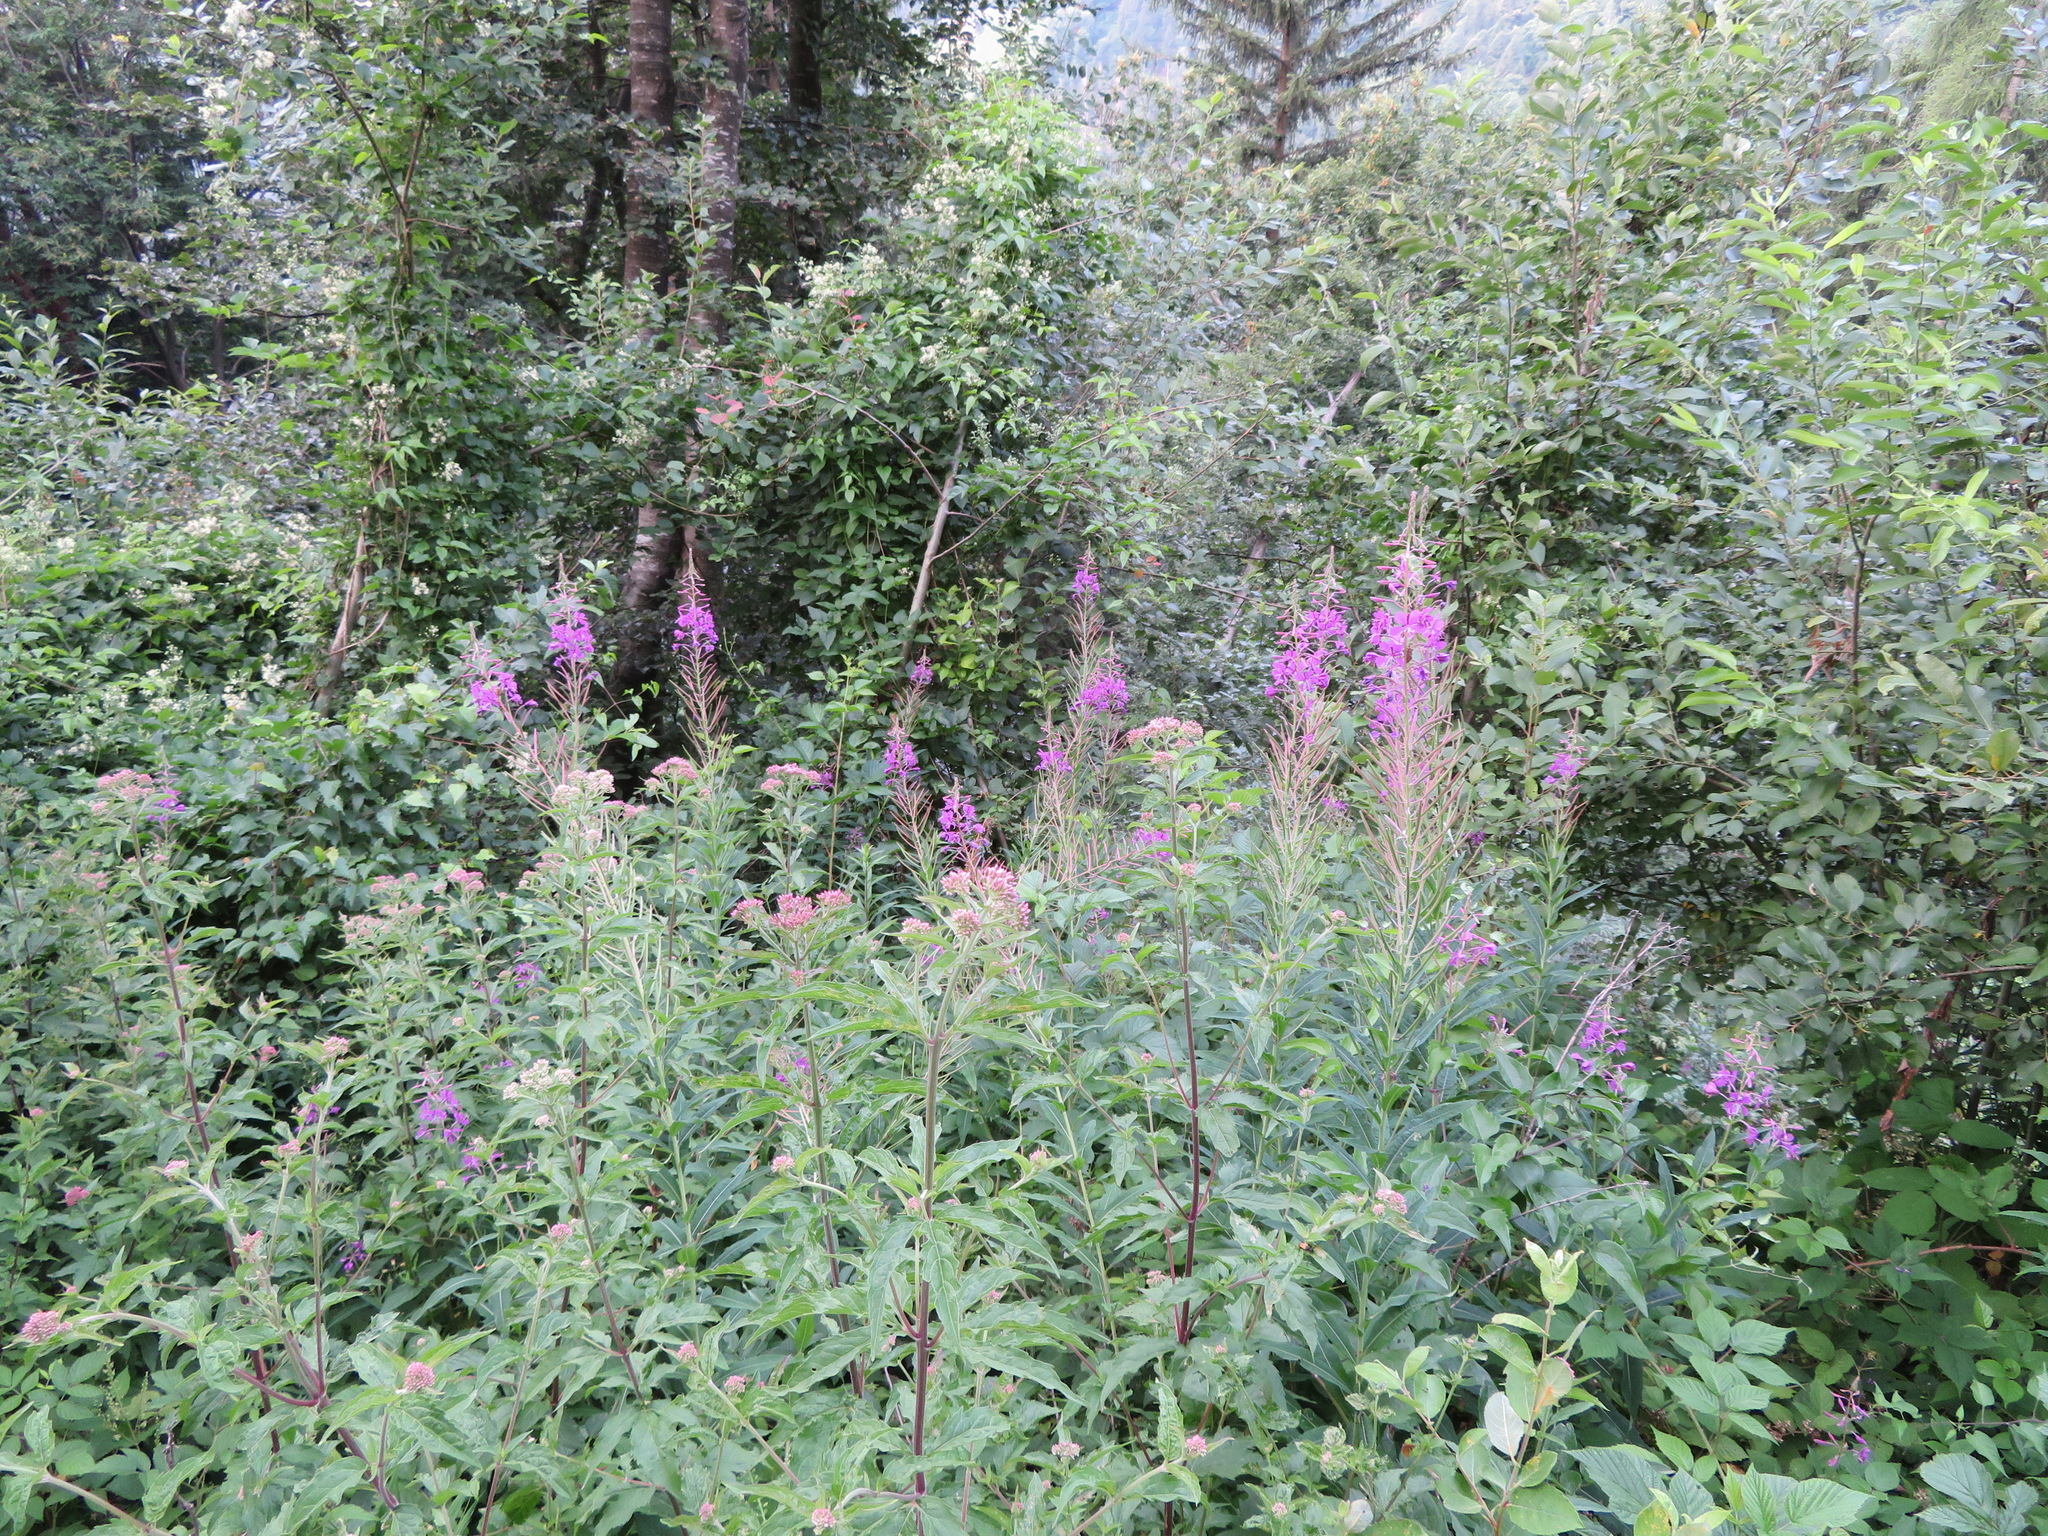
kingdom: Plantae
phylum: Tracheophyta
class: Magnoliopsida
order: Myrtales
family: Onagraceae
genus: Chamaenerion
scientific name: Chamaenerion angustifolium
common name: Fireweed
